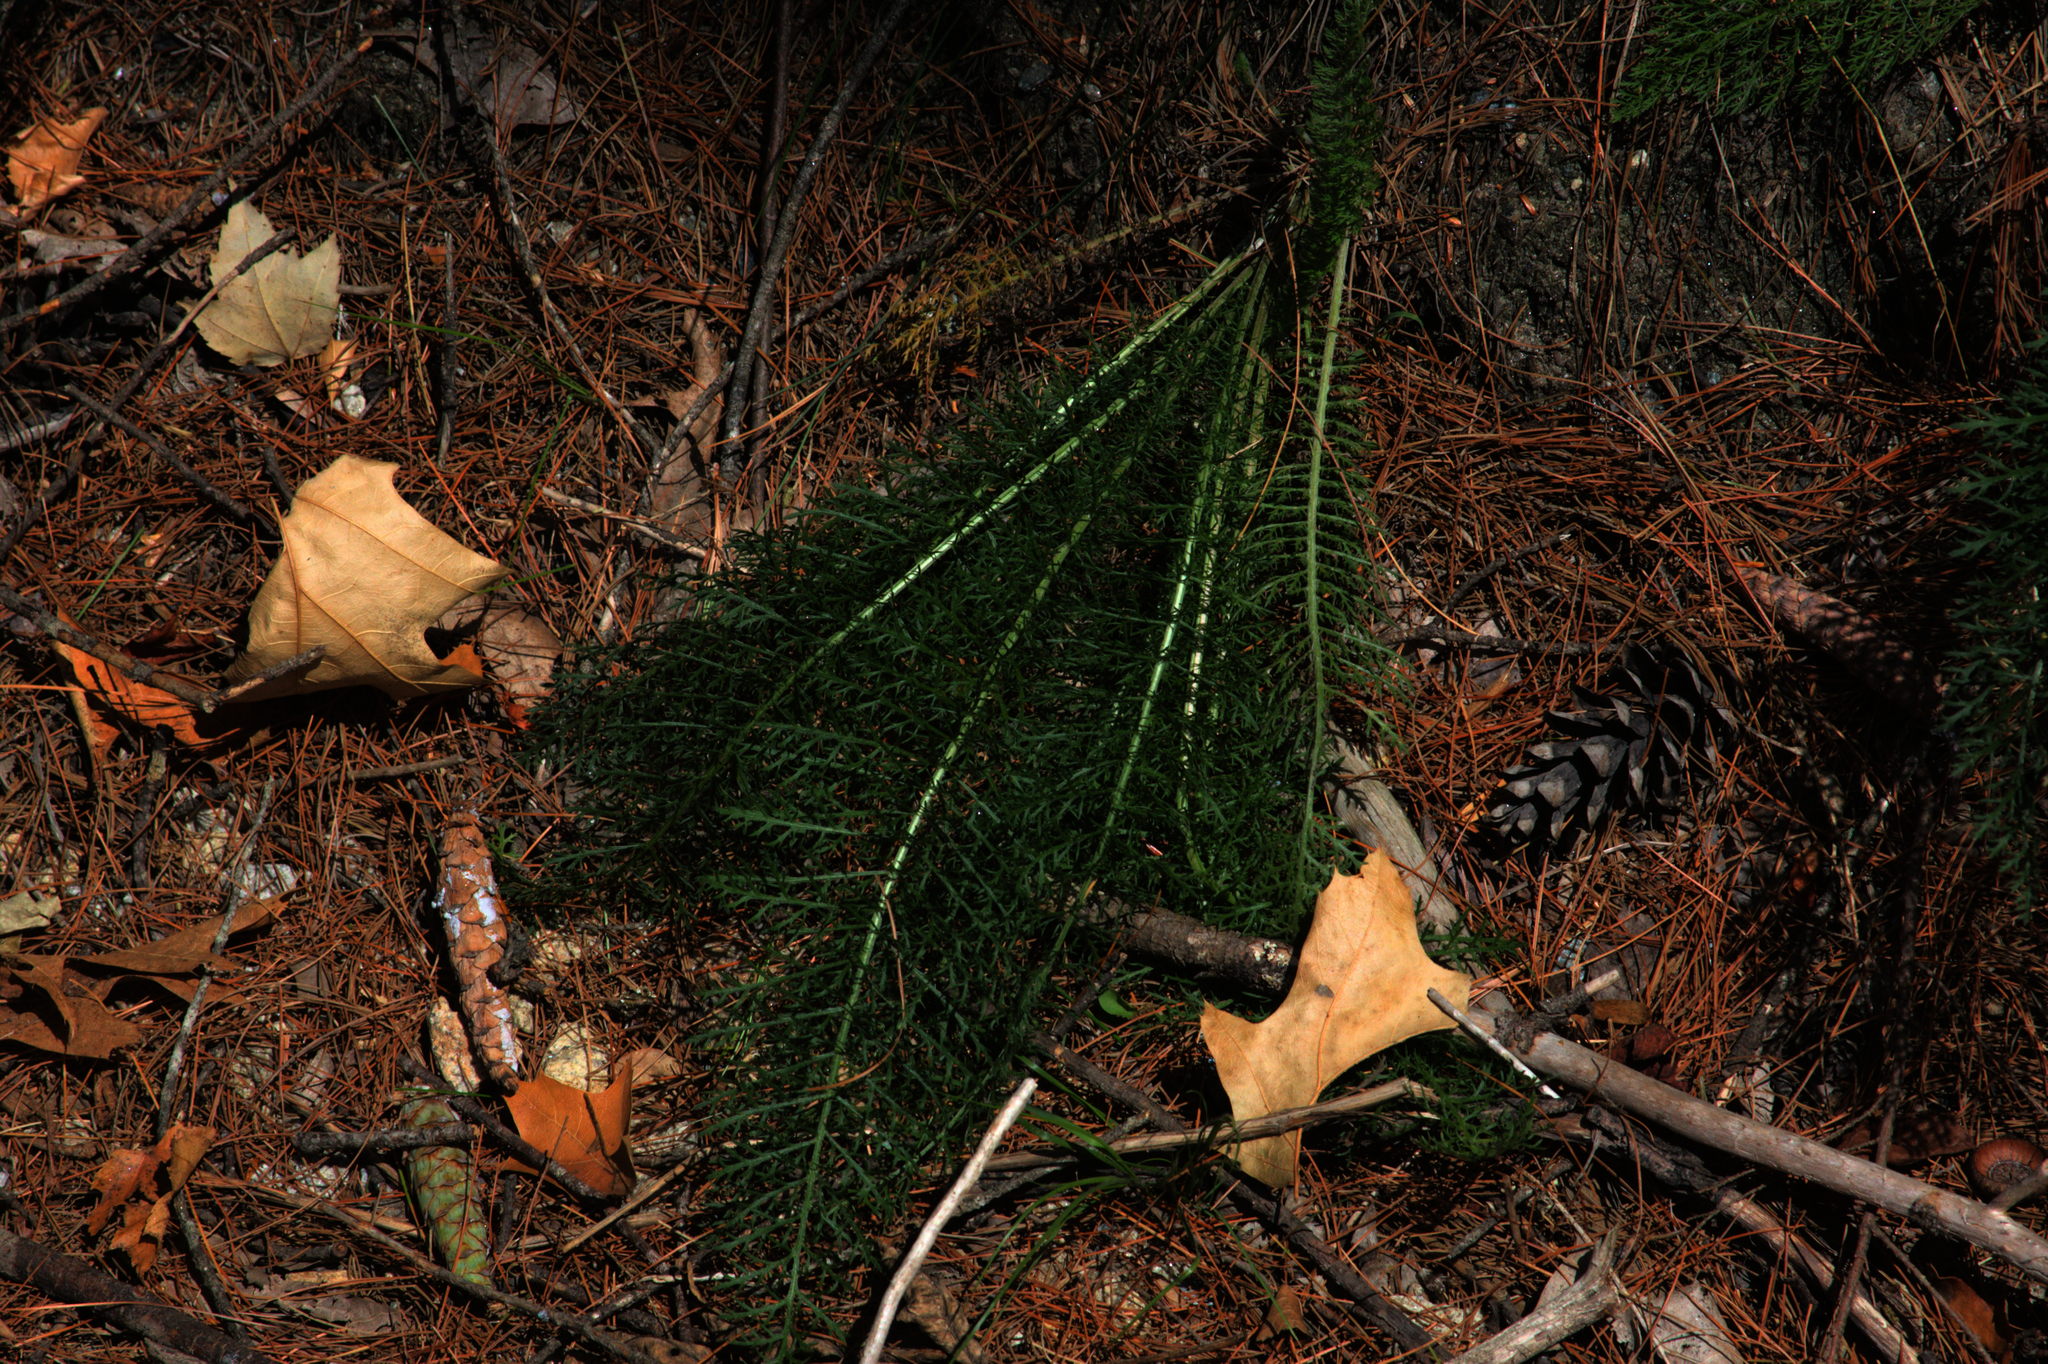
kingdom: Plantae
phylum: Tracheophyta
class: Magnoliopsida
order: Asterales
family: Asteraceae
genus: Achillea
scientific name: Achillea millefolium
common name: Yarrow
